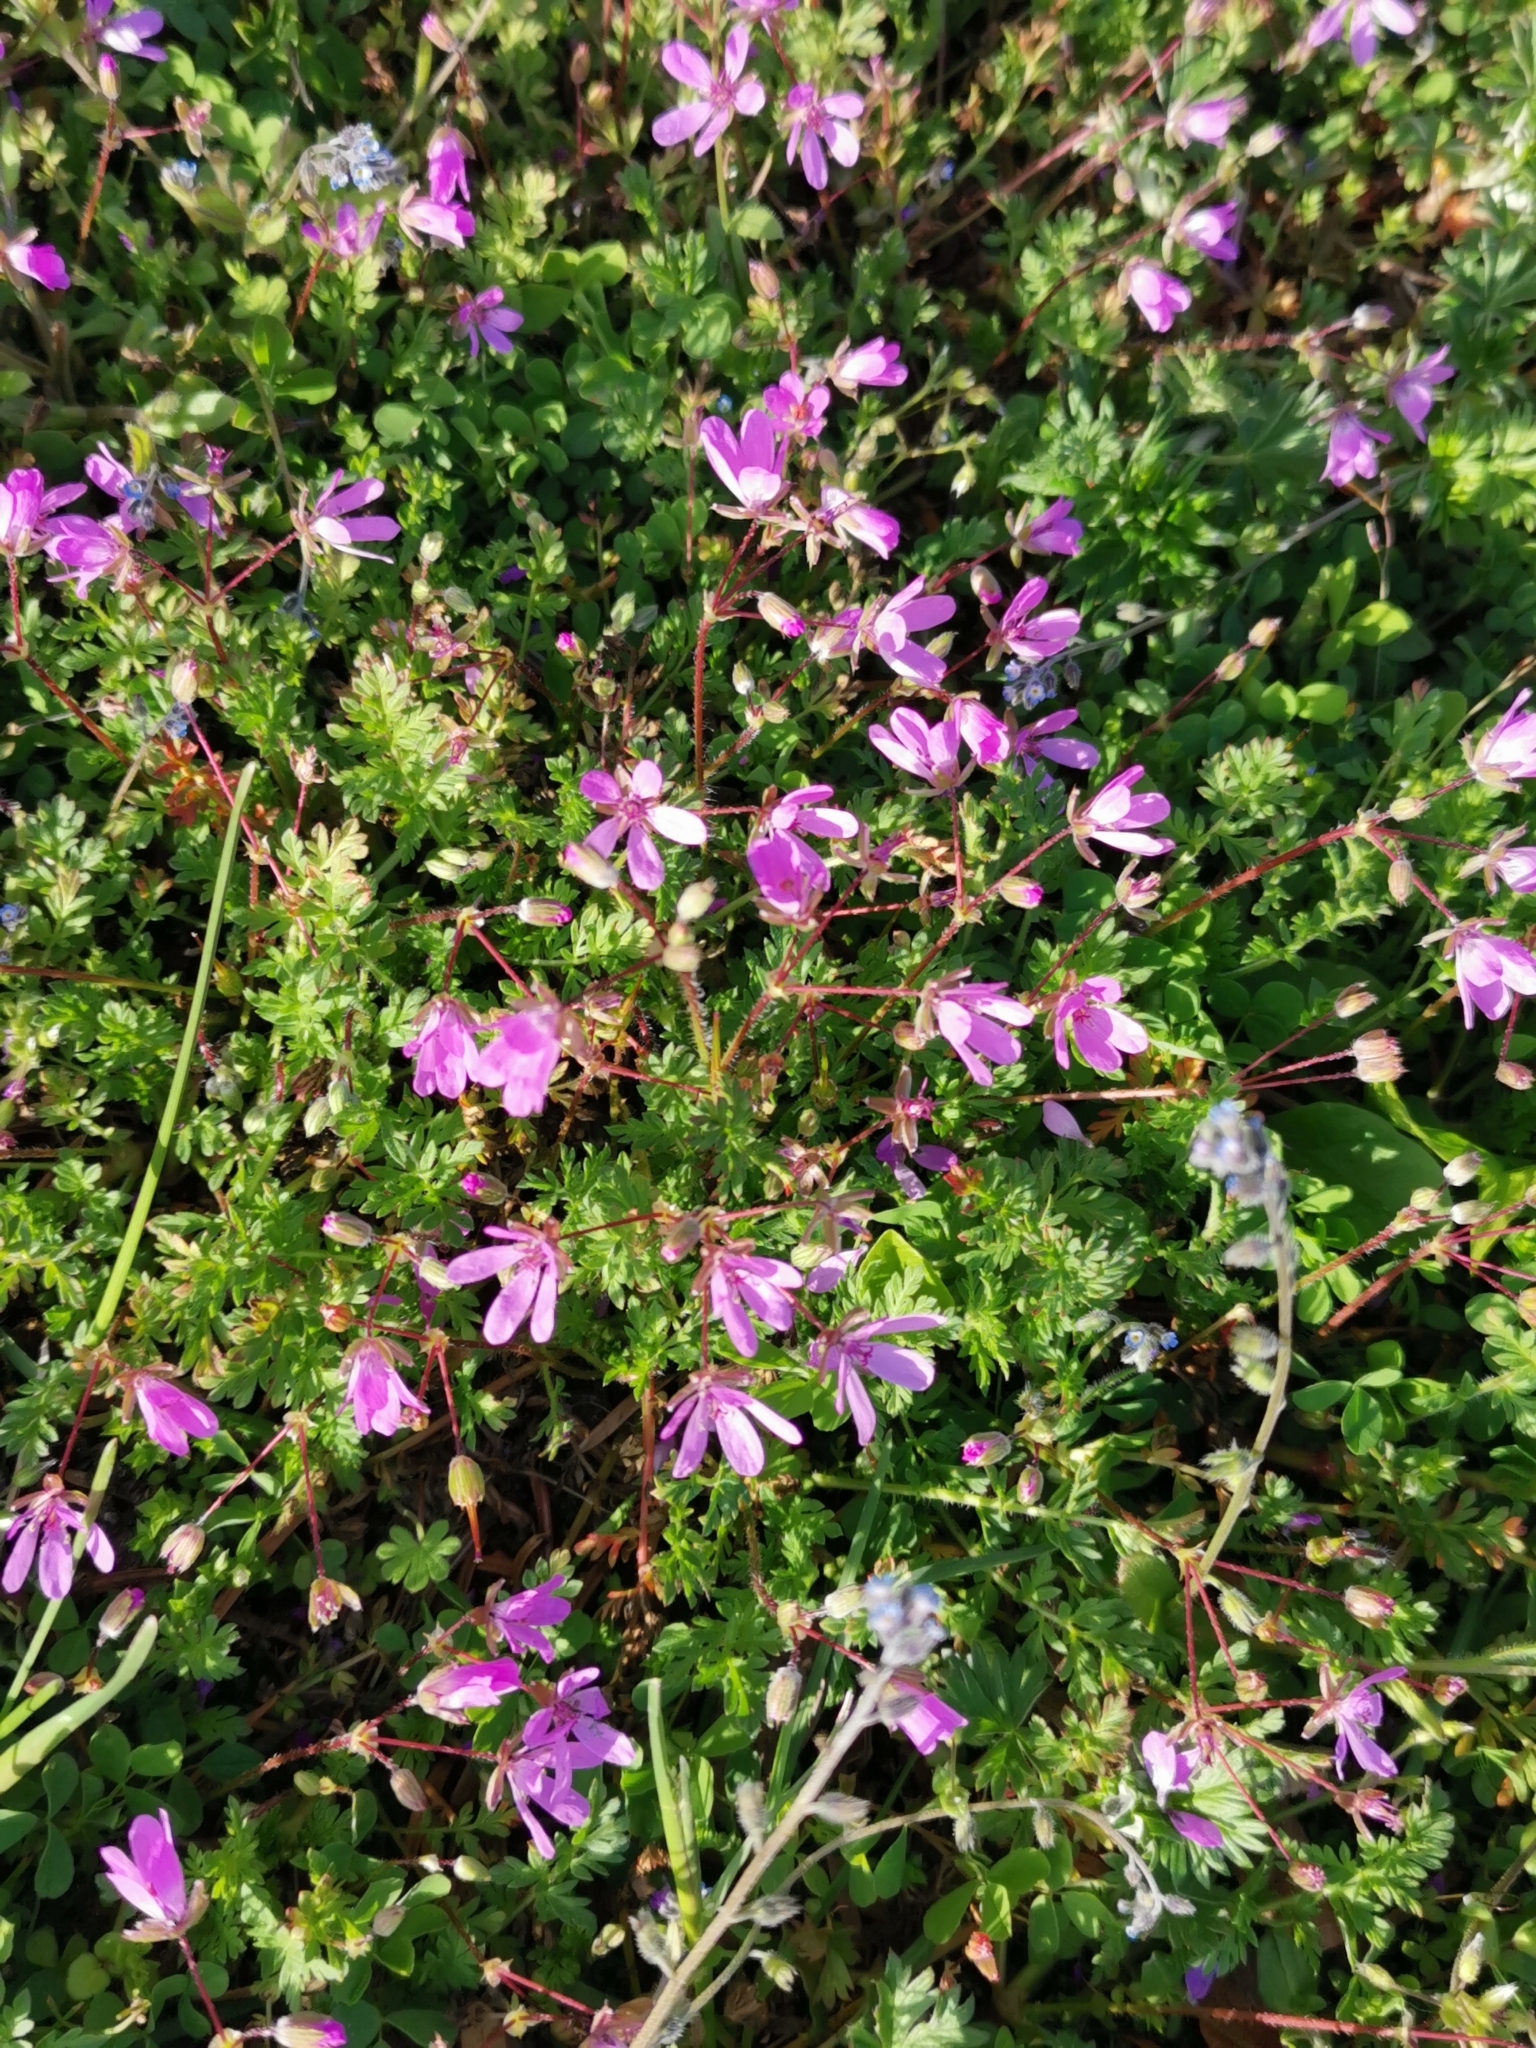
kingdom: Plantae
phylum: Tracheophyta
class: Magnoliopsida
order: Geraniales
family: Geraniaceae
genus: Erodium
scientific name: Erodium cicutarium
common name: Common stork's-bill
